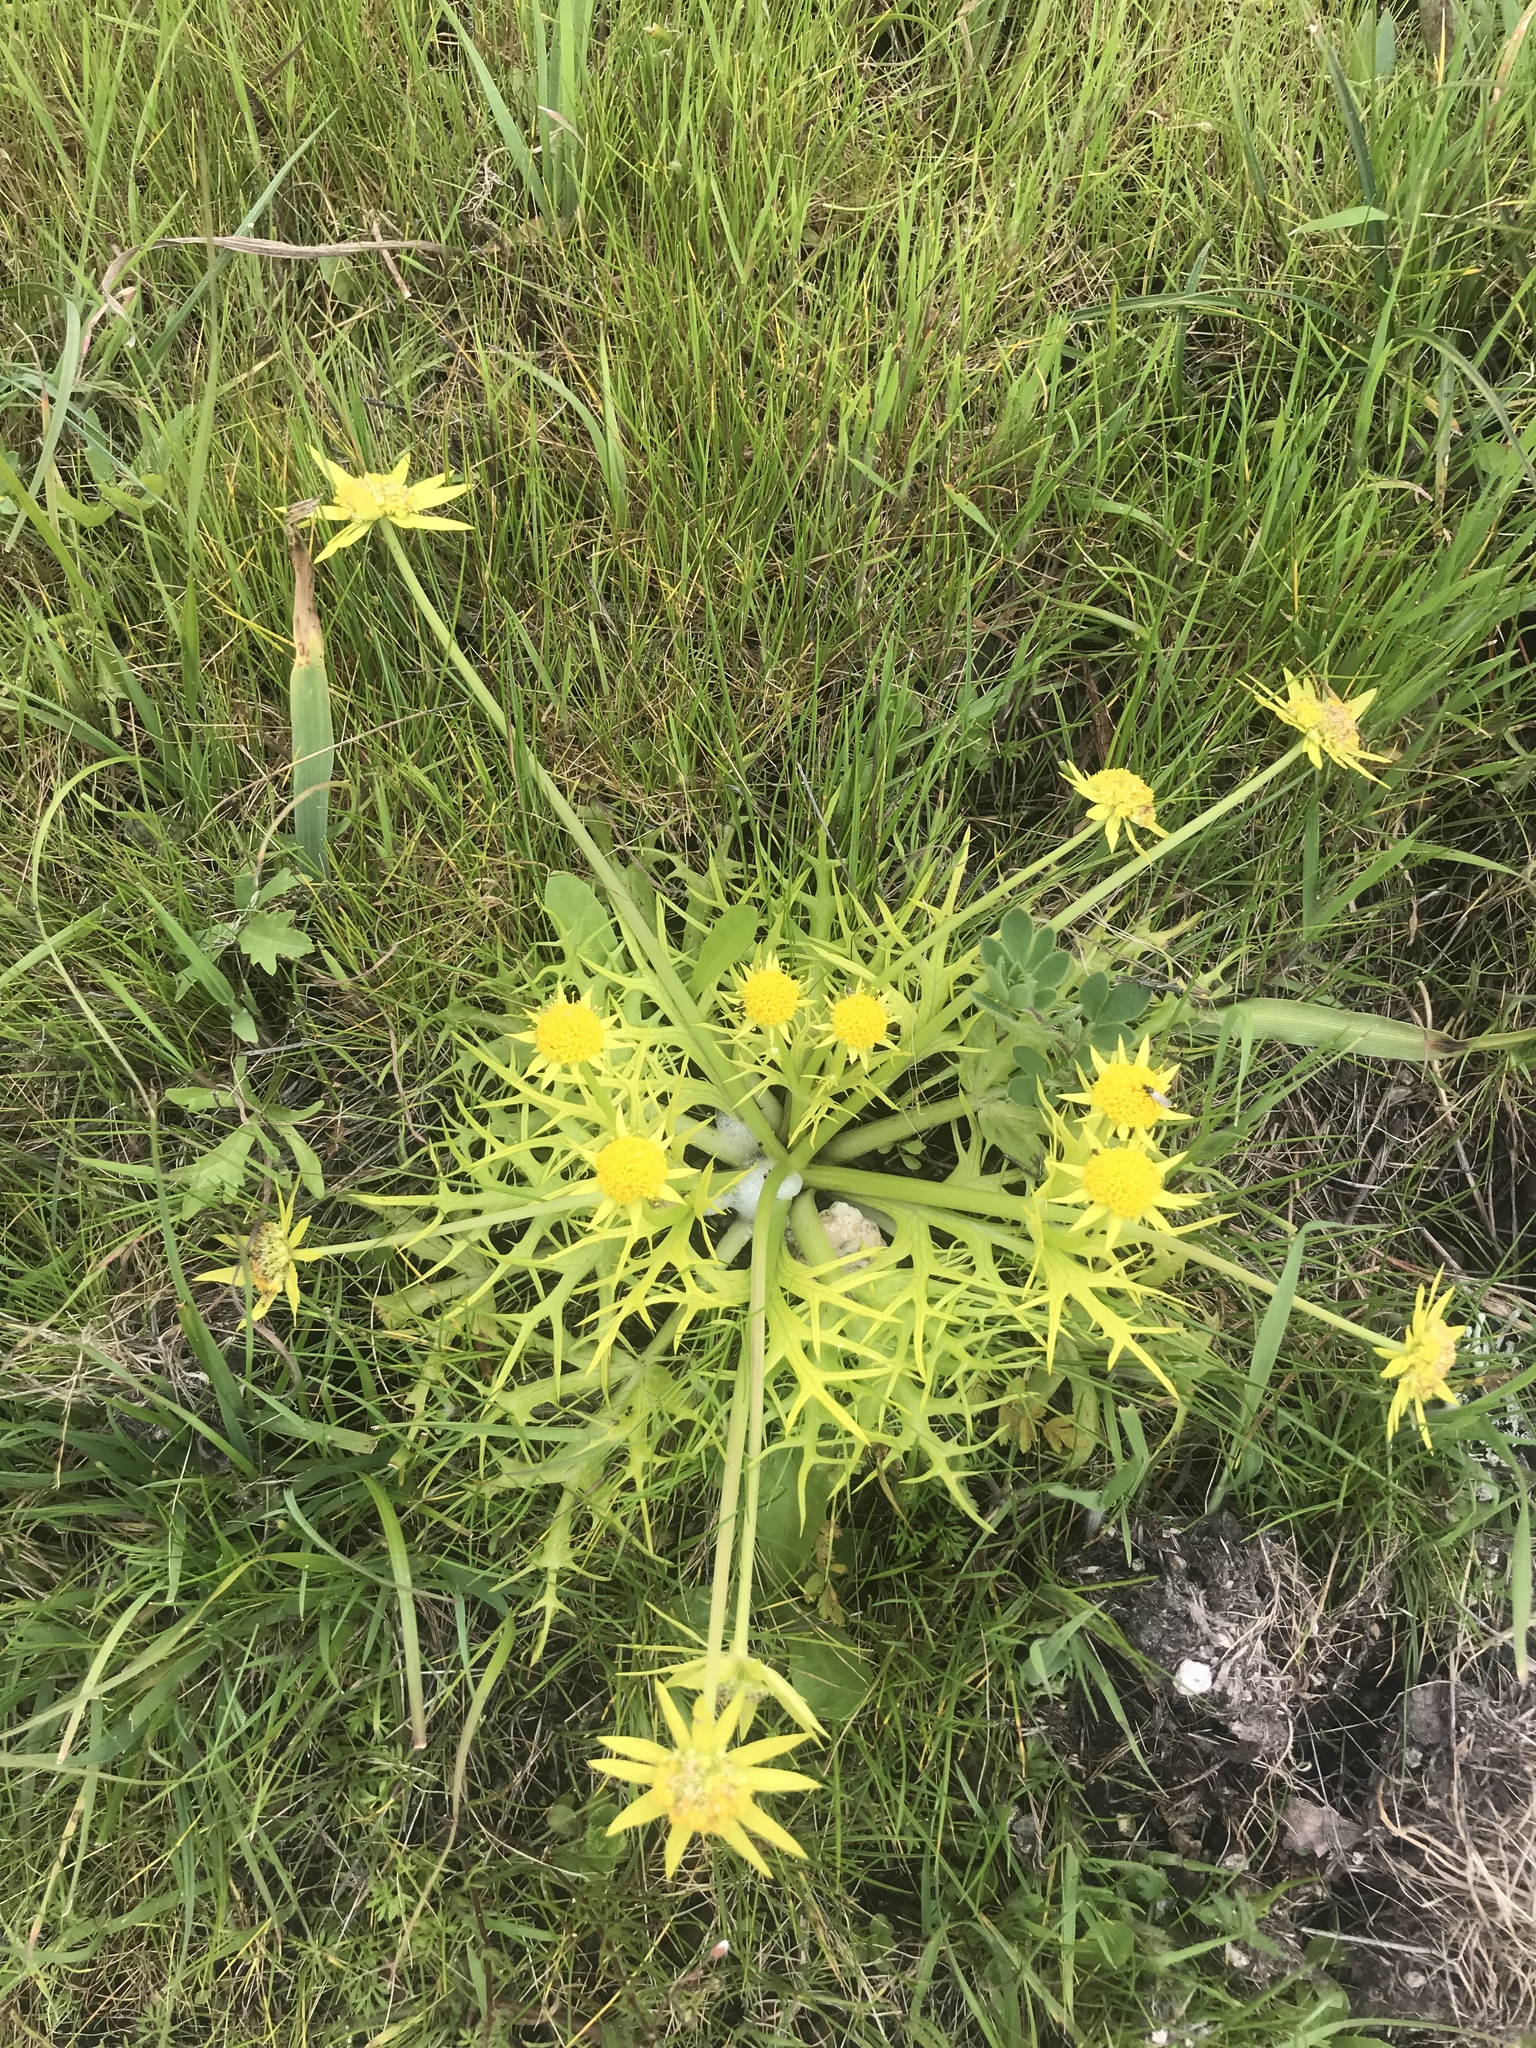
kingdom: Plantae
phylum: Tracheophyta
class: Magnoliopsida
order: Apiales
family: Apiaceae
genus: Sanicula
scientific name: Sanicula arctopoides
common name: Footsteps-of-spring
